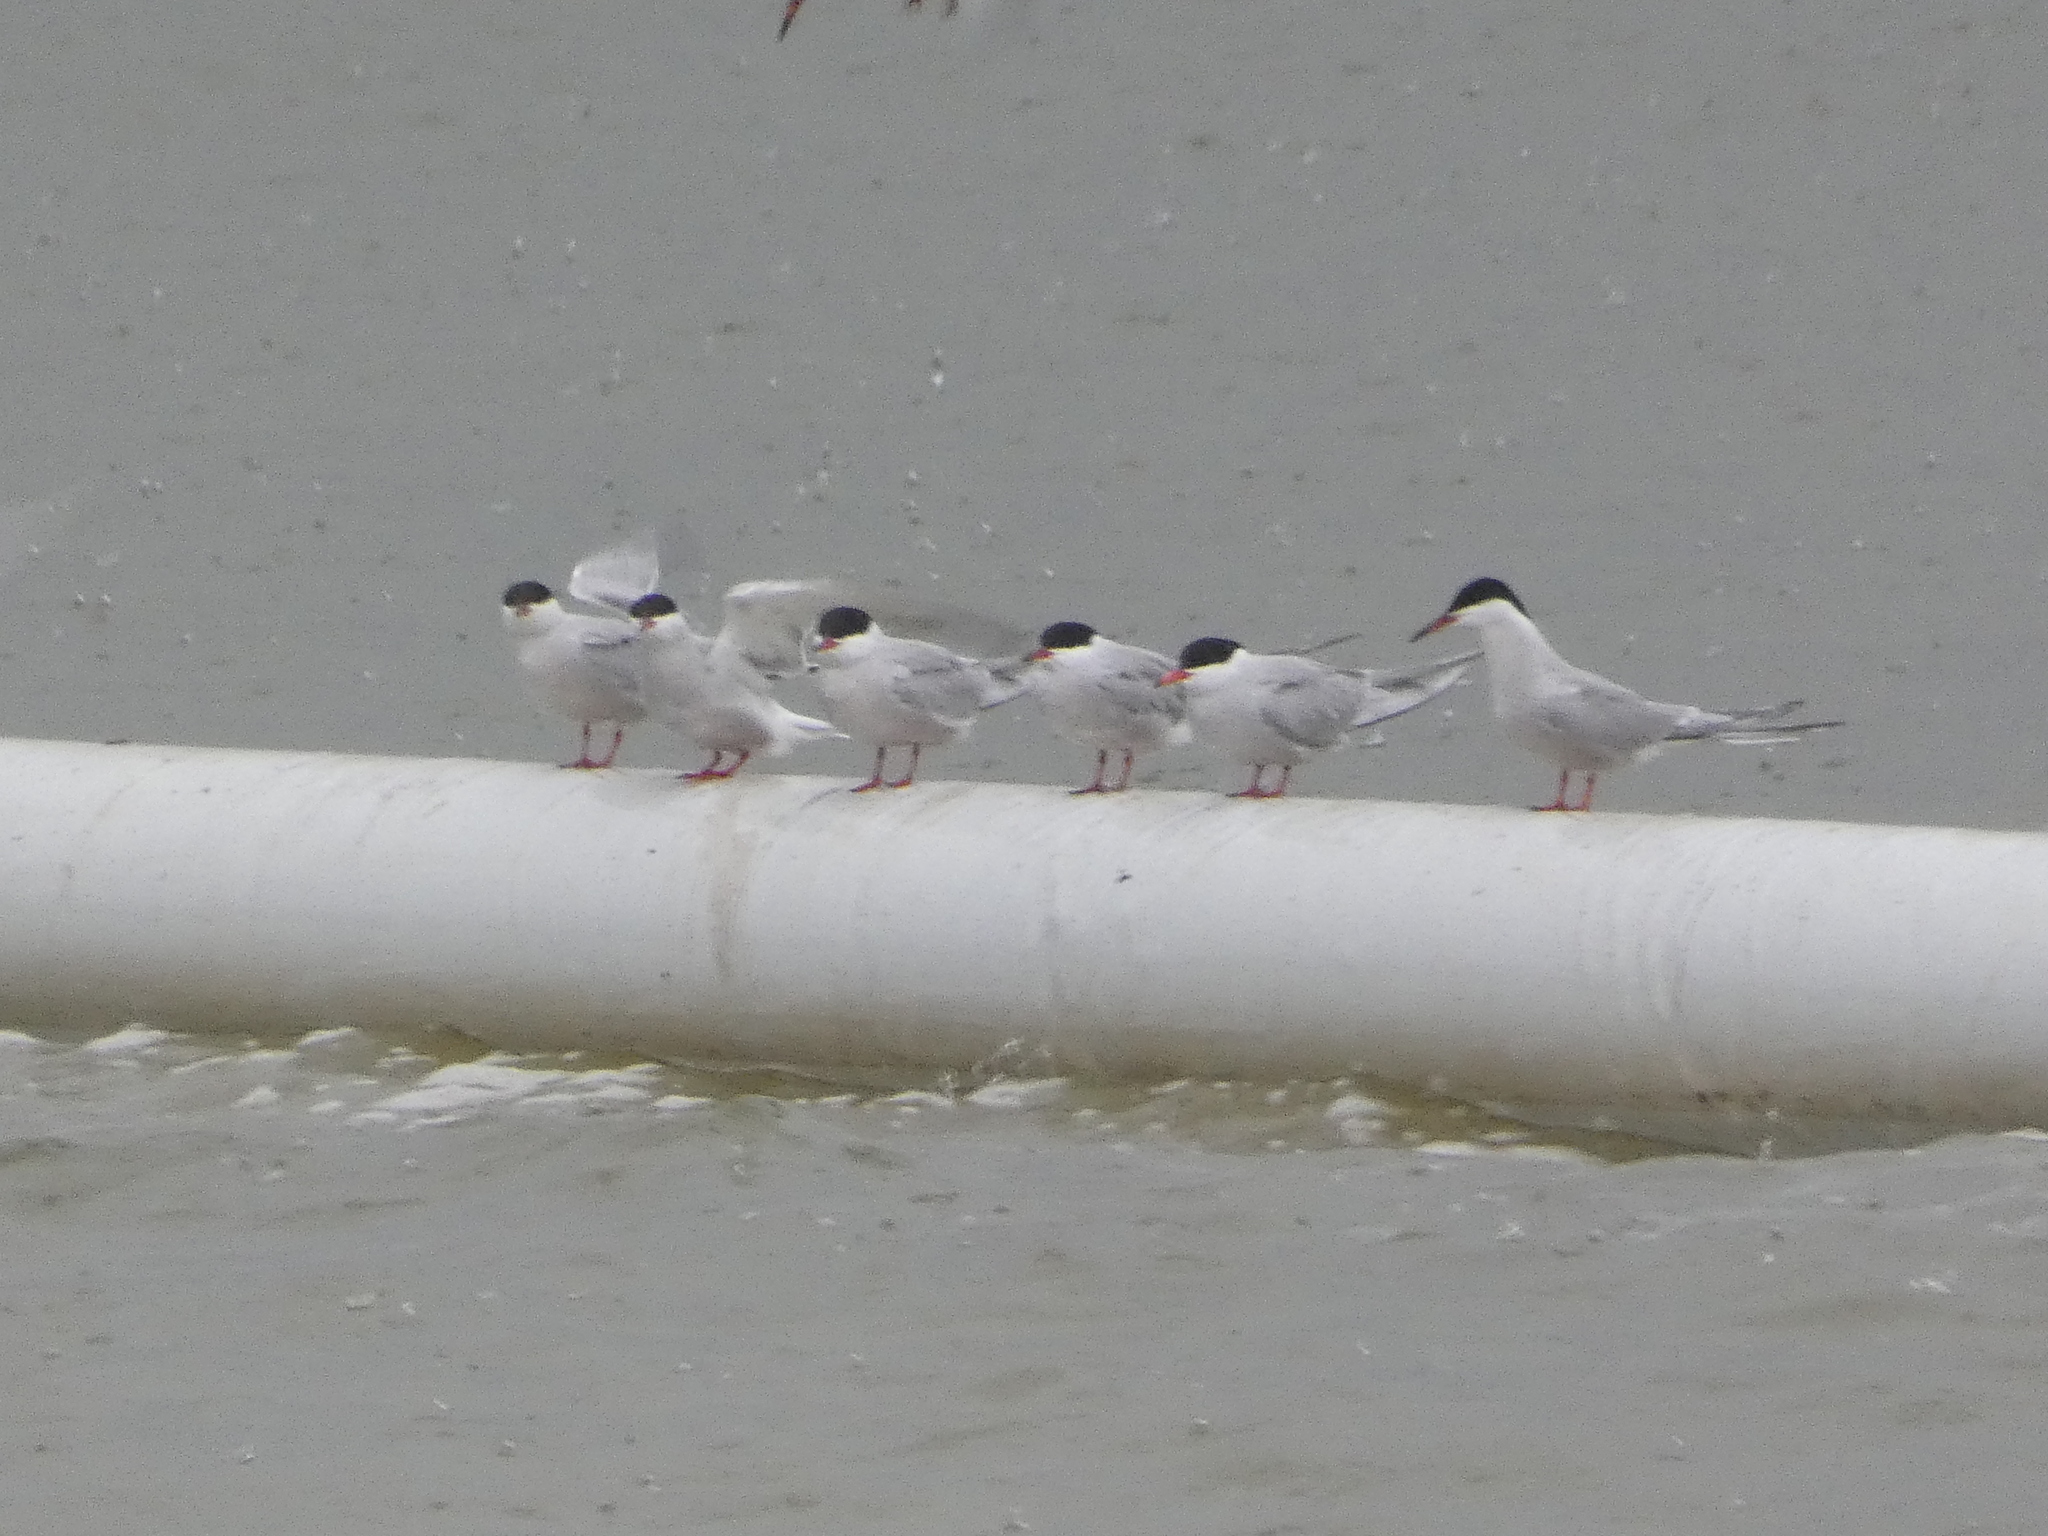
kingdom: Animalia
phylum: Chordata
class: Aves
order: Charadriiformes
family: Laridae
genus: Sterna
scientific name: Sterna hirundo
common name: Common tern
